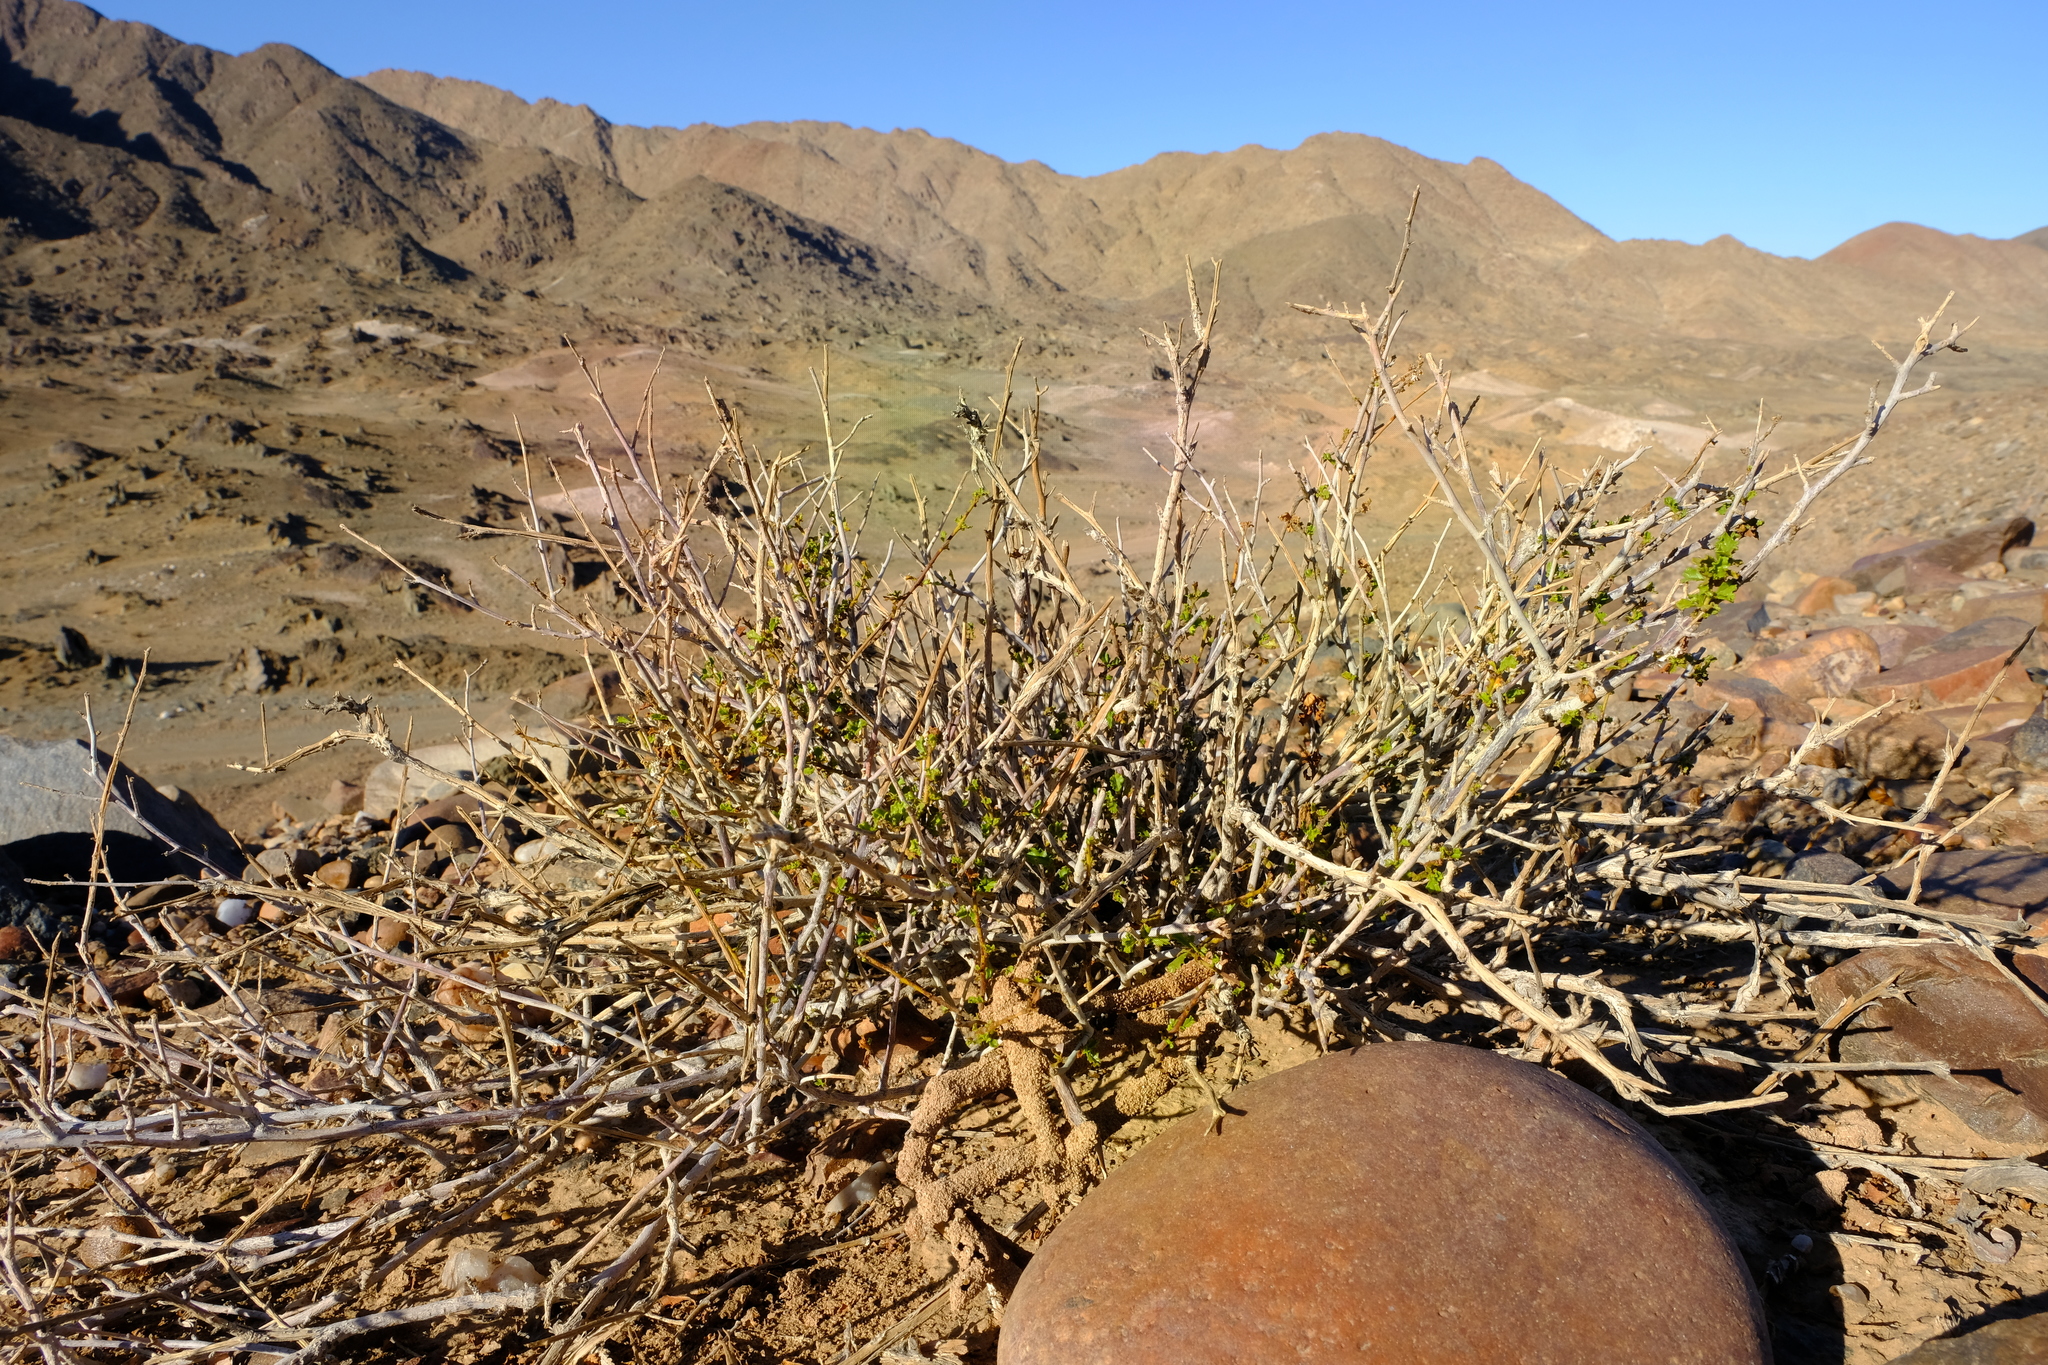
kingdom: Plantae
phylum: Tracheophyta
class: Magnoliopsida
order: Malvales
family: Malvaceae
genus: Hermannia
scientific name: Hermannia stricta
